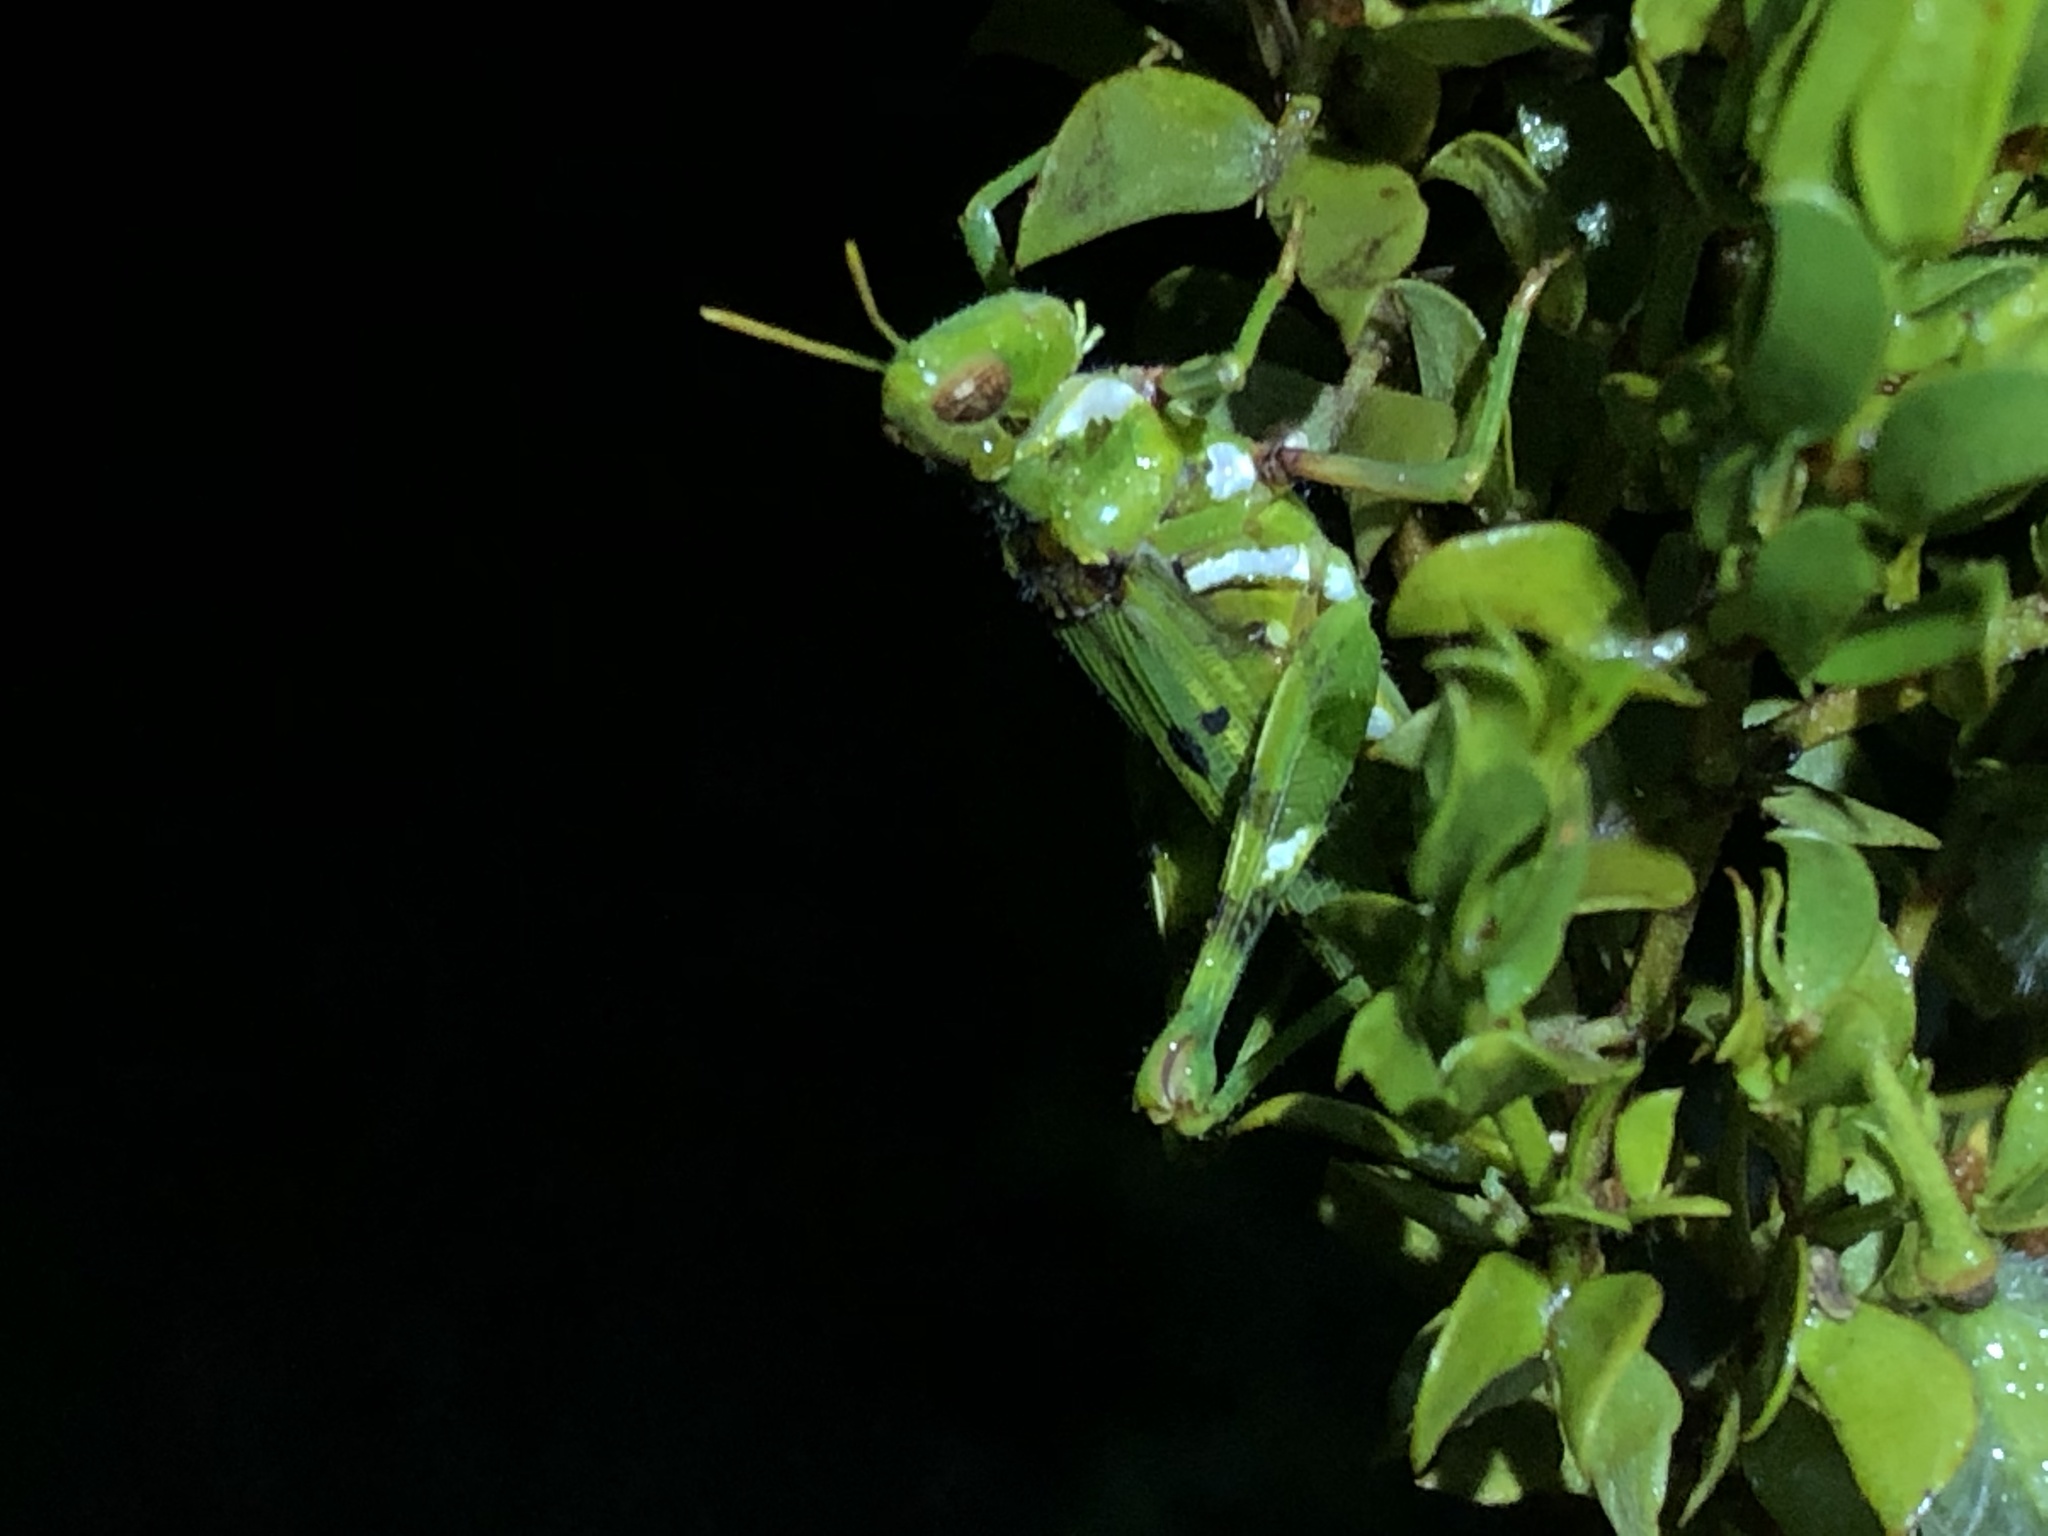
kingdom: Animalia
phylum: Arthropoda
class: Insecta
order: Orthoptera
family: Acrididae
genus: Bootettix
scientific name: Bootettix argentatus
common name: Creosote bush grasshopper
